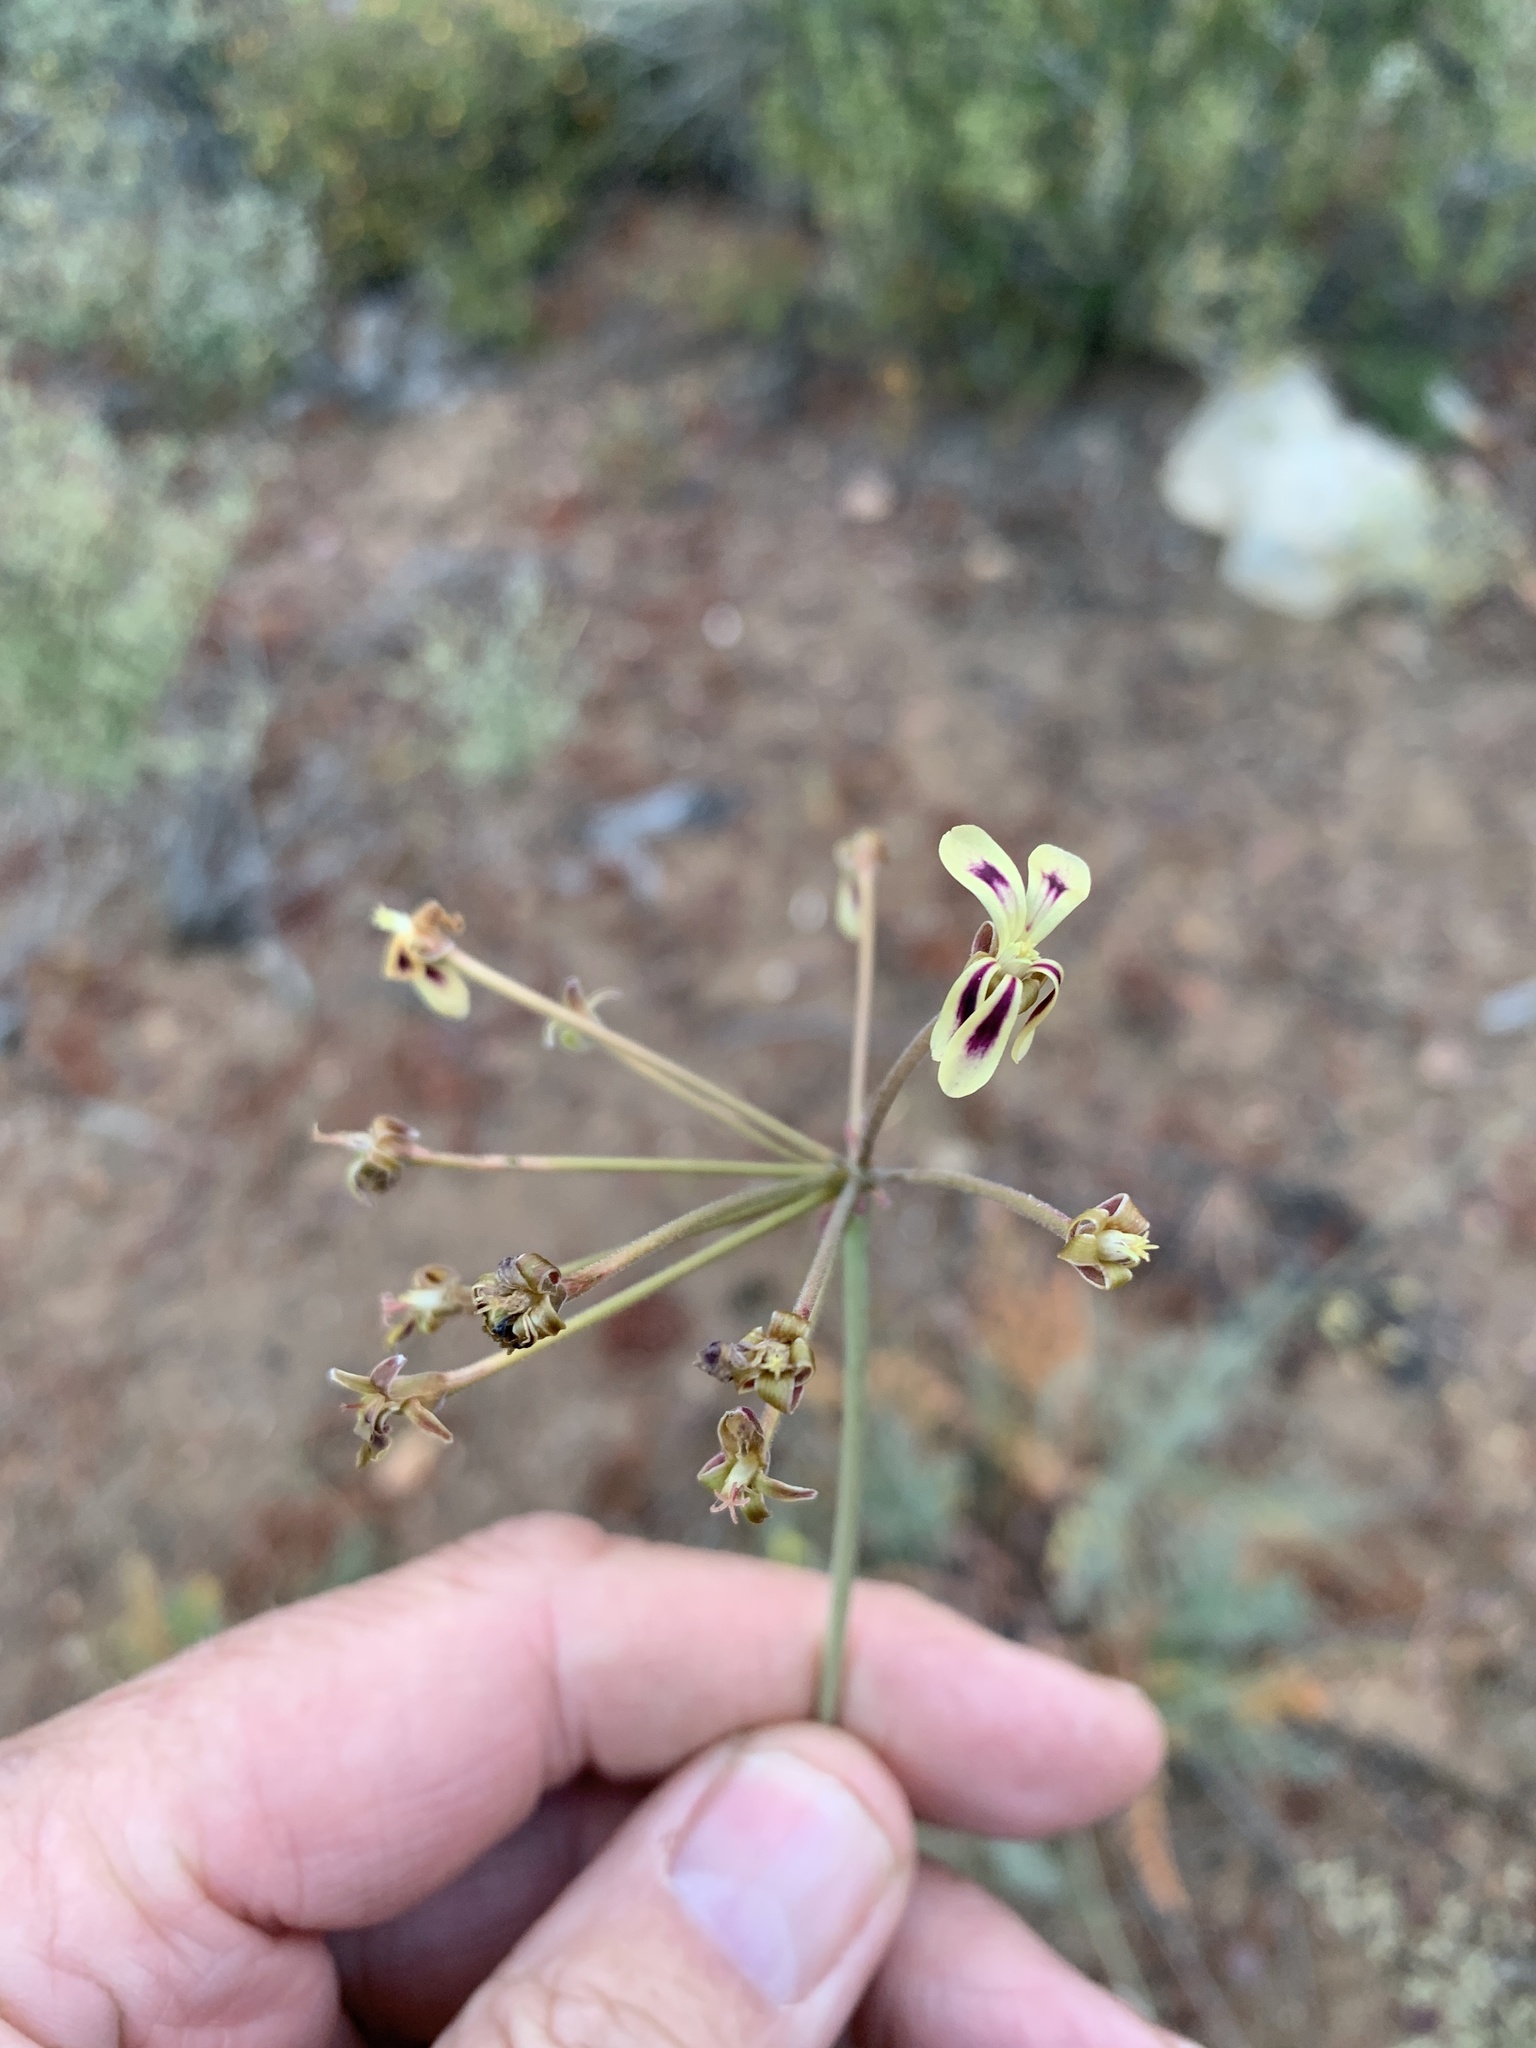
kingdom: Plantae
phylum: Tracheophyta
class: Magnoliopsida
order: Geraniales
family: Geraniaceae
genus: Pelargonium
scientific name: Pelargonium triste
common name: Night-scent pelargonium
